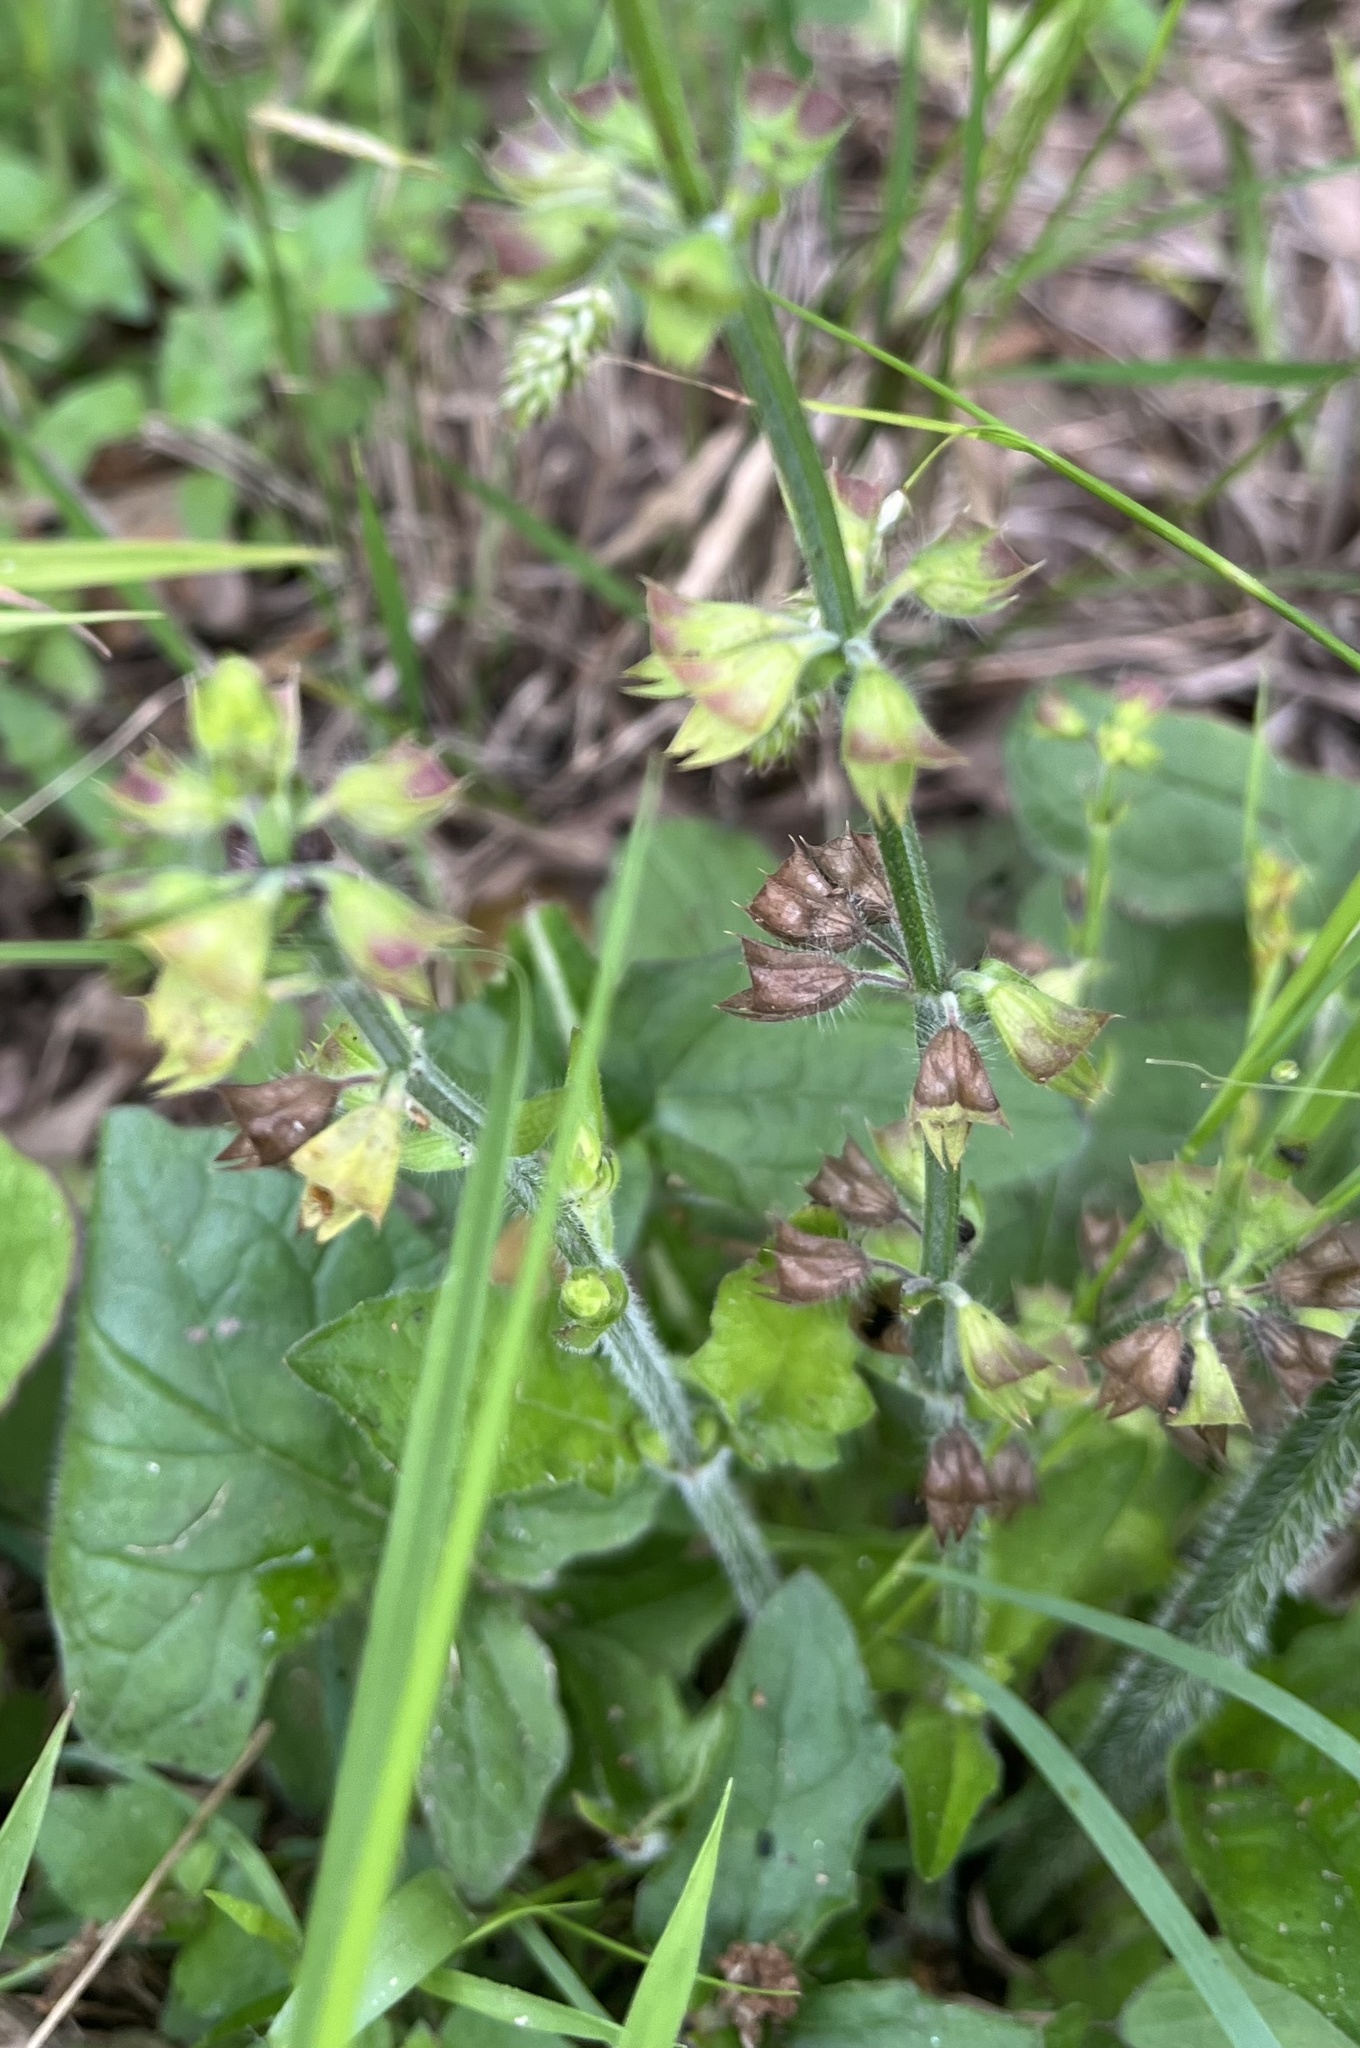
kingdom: Plantae
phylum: Tracheophyta
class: Magnoliopsida
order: Lamiales
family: Lamiaceae
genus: Salvia
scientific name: Salvia lyrata
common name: Cancerweed
